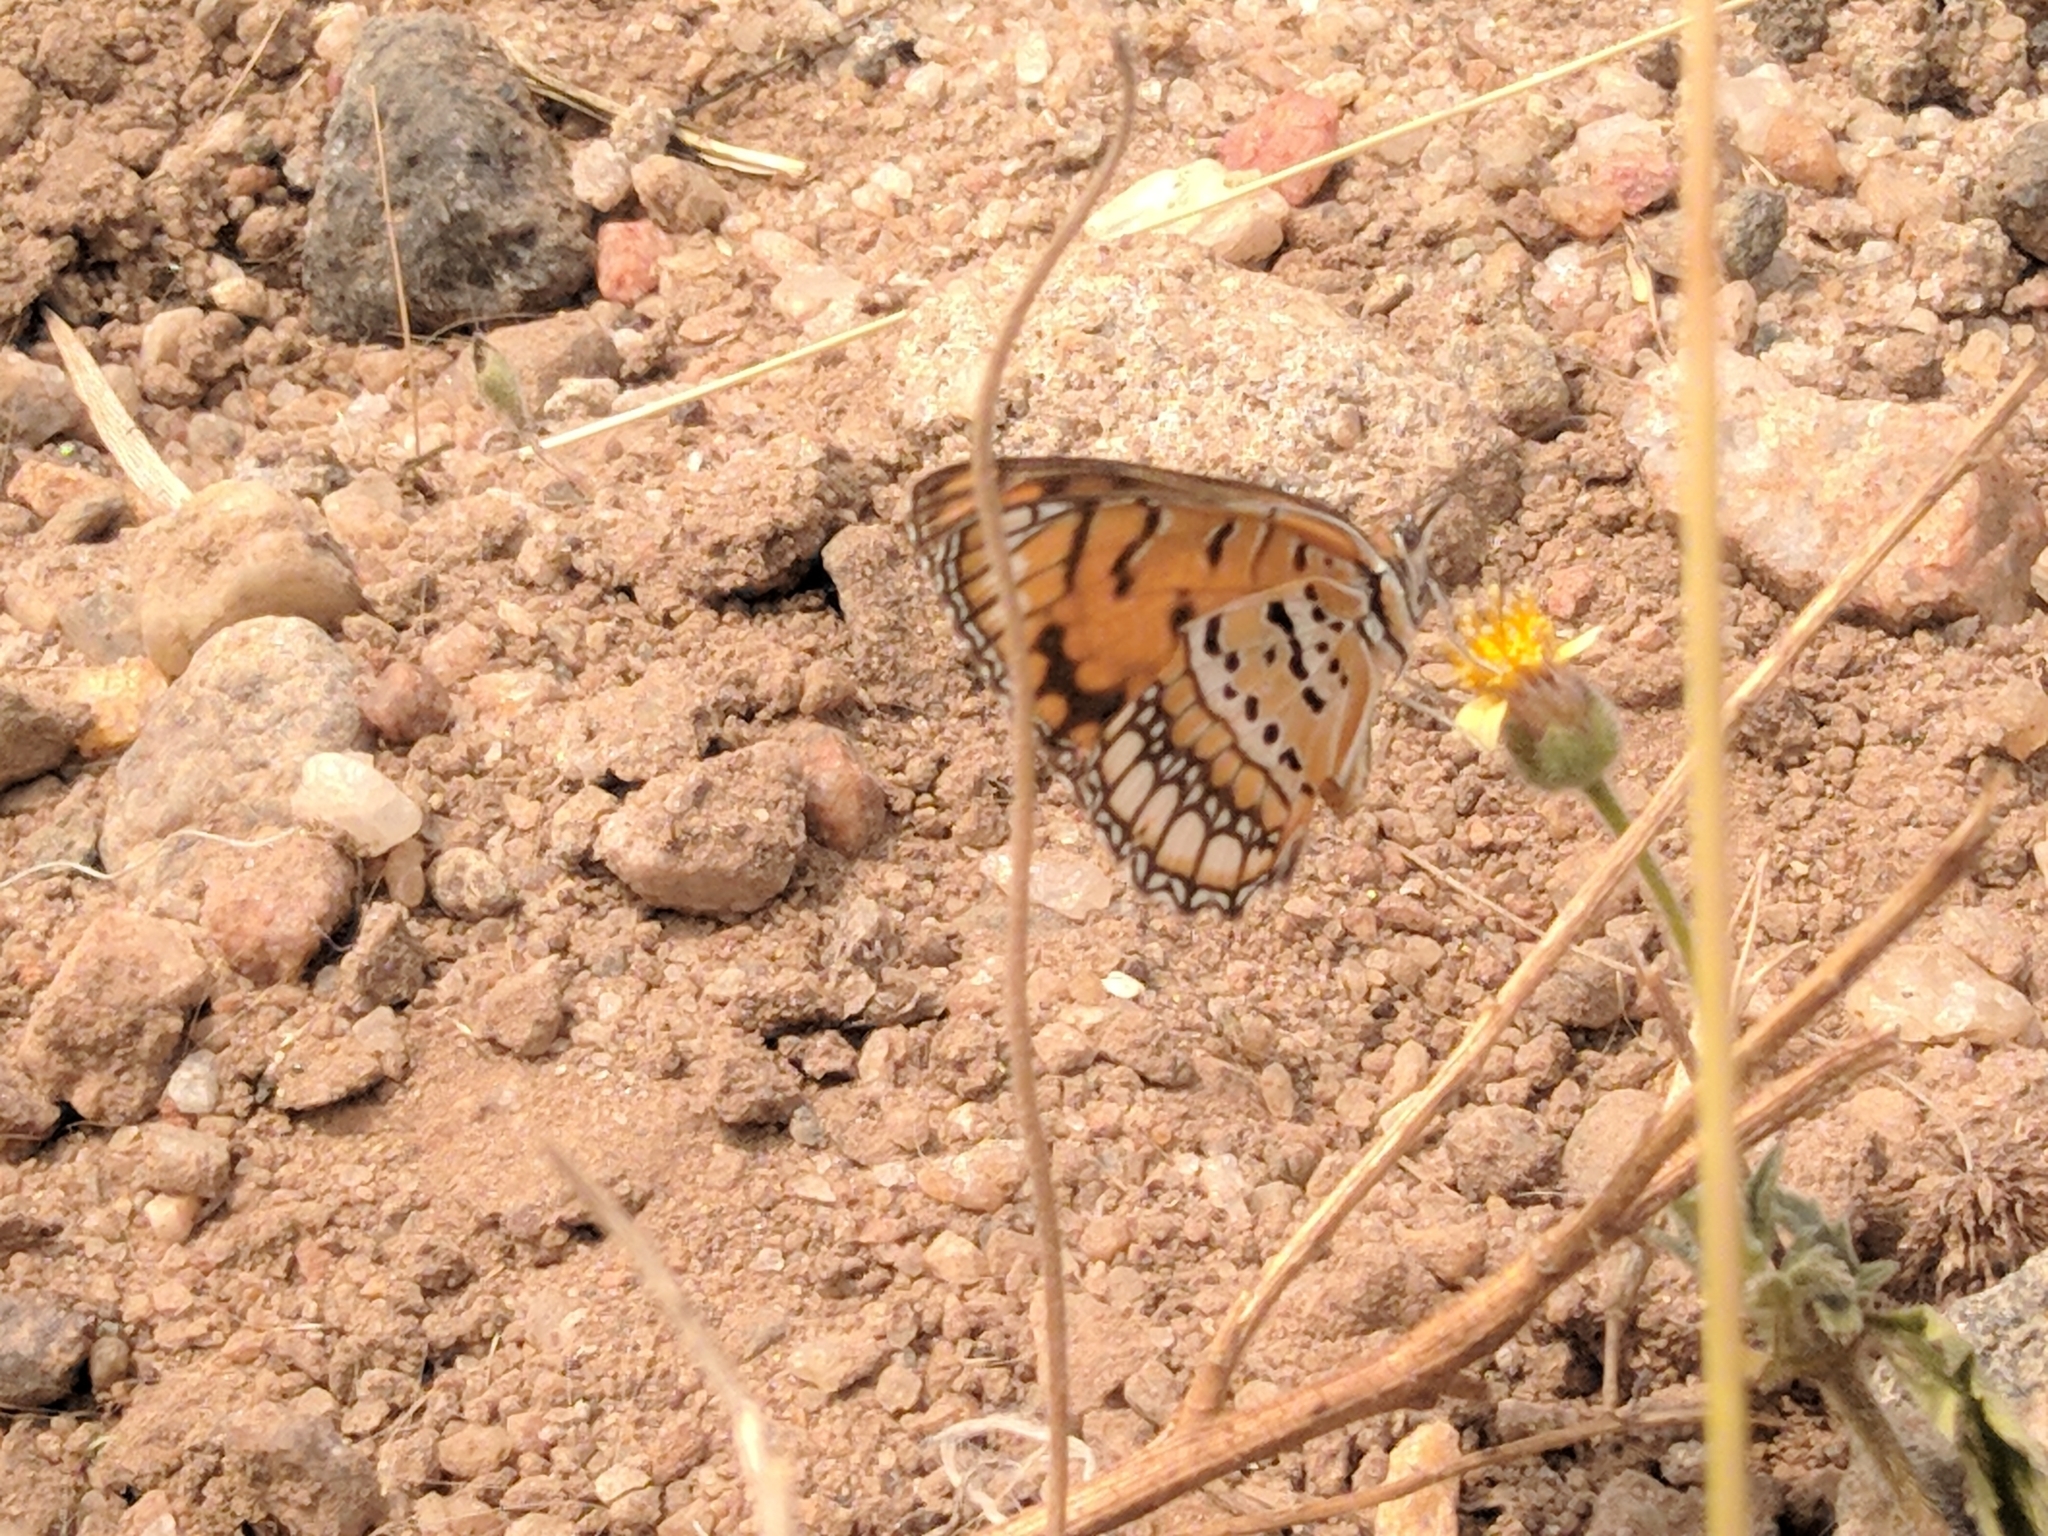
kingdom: Animalia
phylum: Arthropoda
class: Insecta
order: Lepidoptera
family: Nymphalidae
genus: Byblia
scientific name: Byblia ilithyia
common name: Spotted joker
